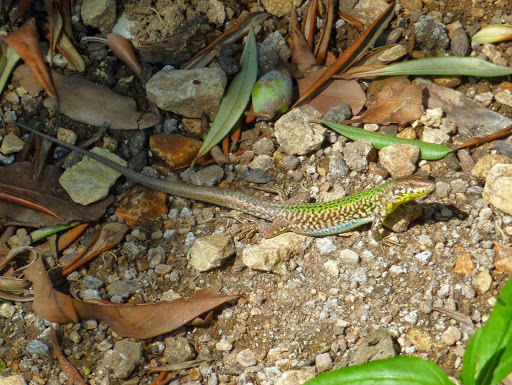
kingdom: Animalia
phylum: Chordata
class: Squamata
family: Lacertidae
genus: Podarcis
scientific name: Podarcis filfolensis
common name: Maltese wall lizard
